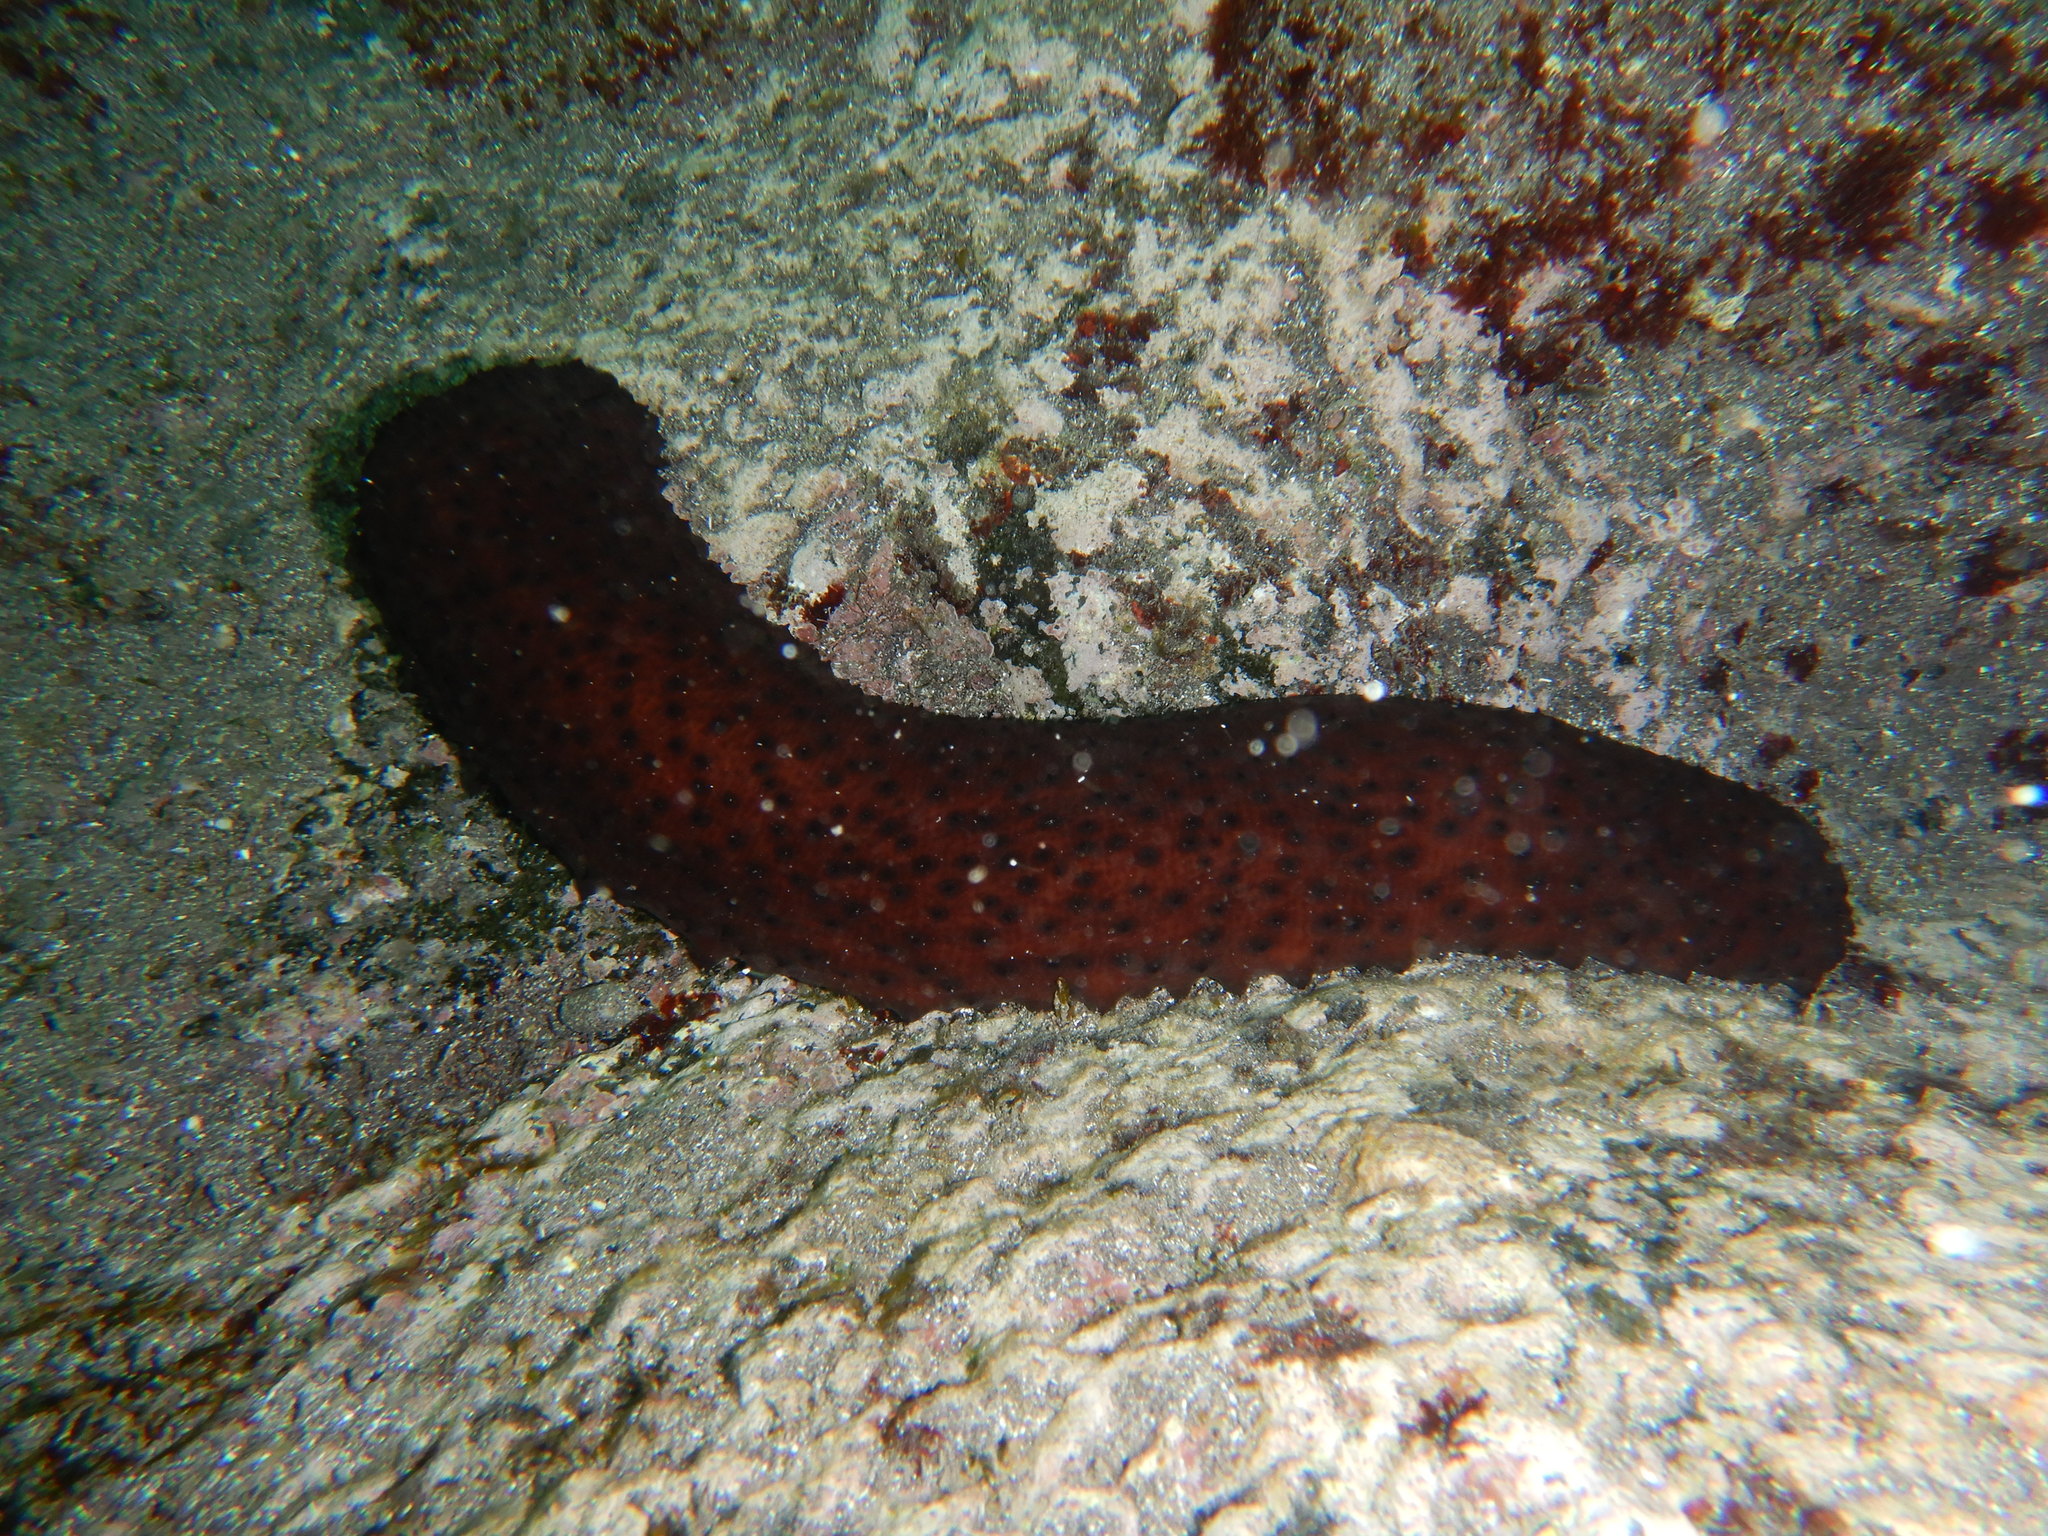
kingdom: Animalia
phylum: Echinodermata
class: Holothuroidea
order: Holothuriida
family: Holothuriidae
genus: Holothuria
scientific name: Holothuria sanctori
